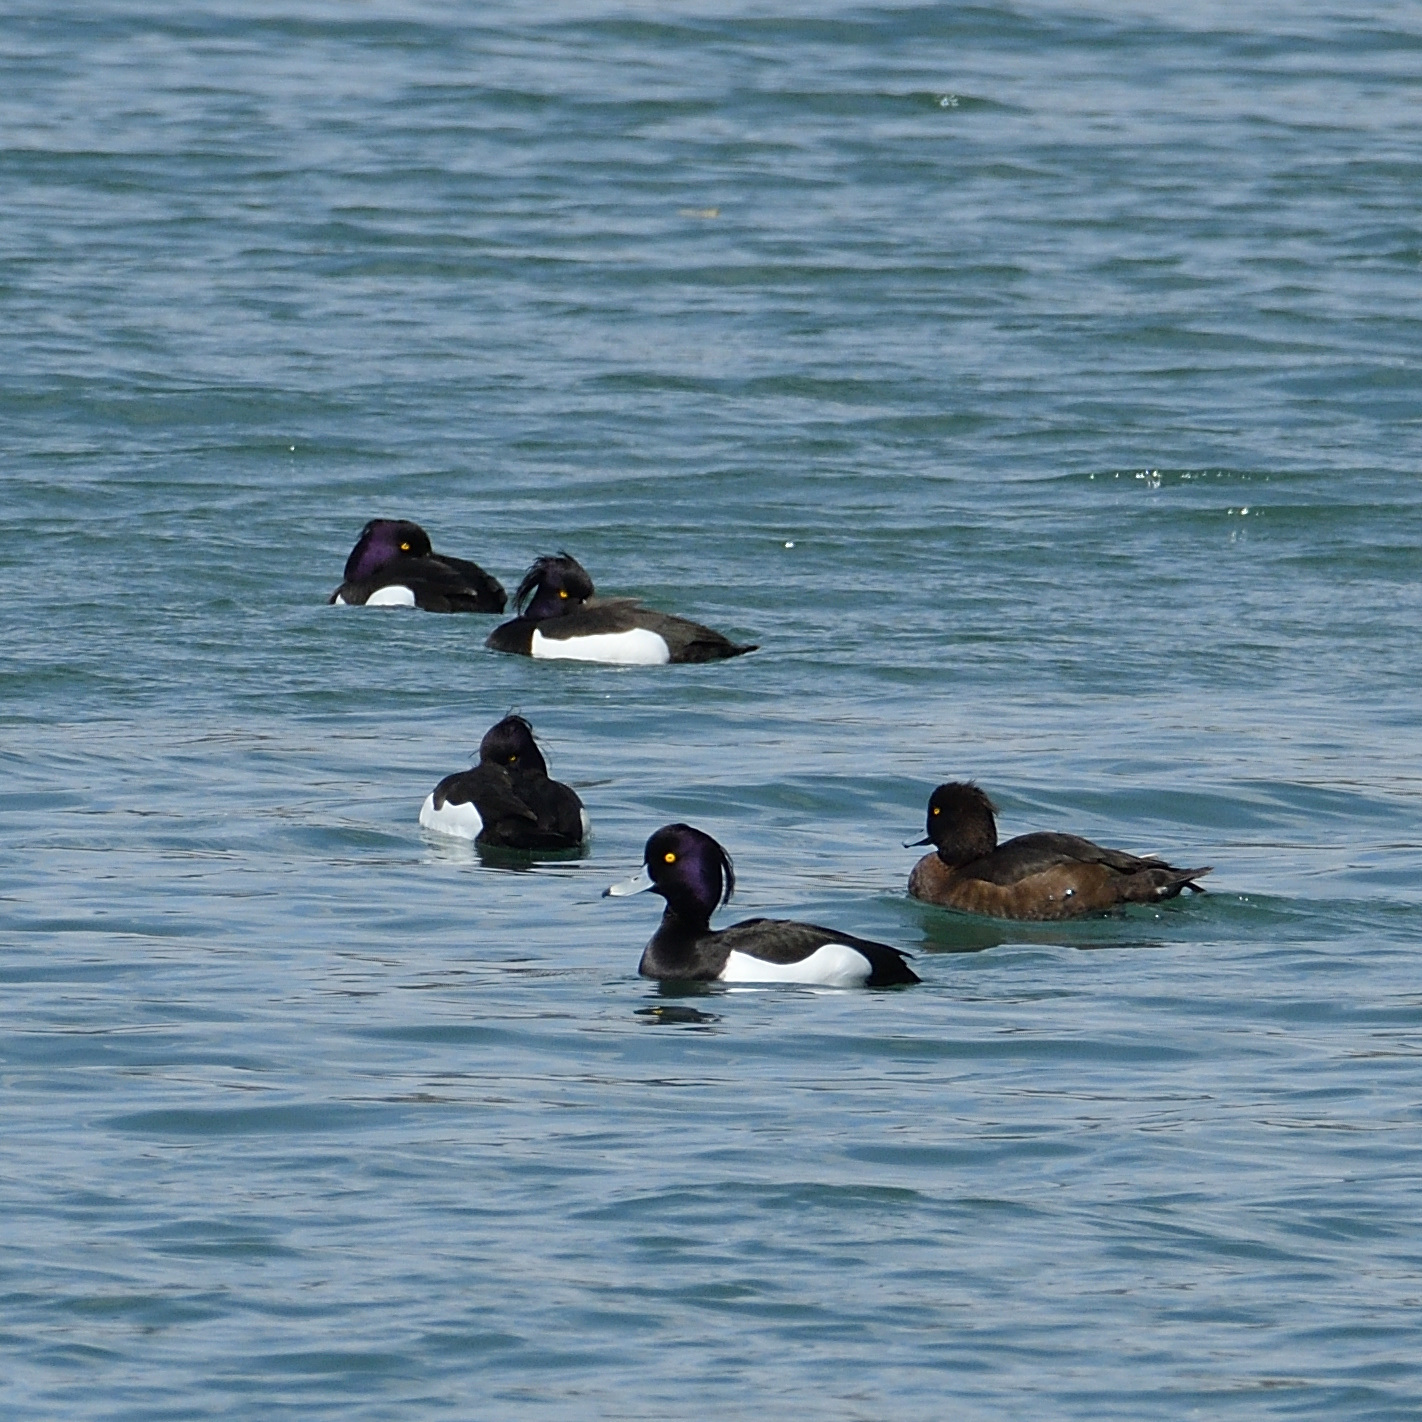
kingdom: Animalia
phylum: Chordata
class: Aves
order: Anseriformes
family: Anatidae
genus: Aythya
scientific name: Aythya fuligula
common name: Tufted duck
